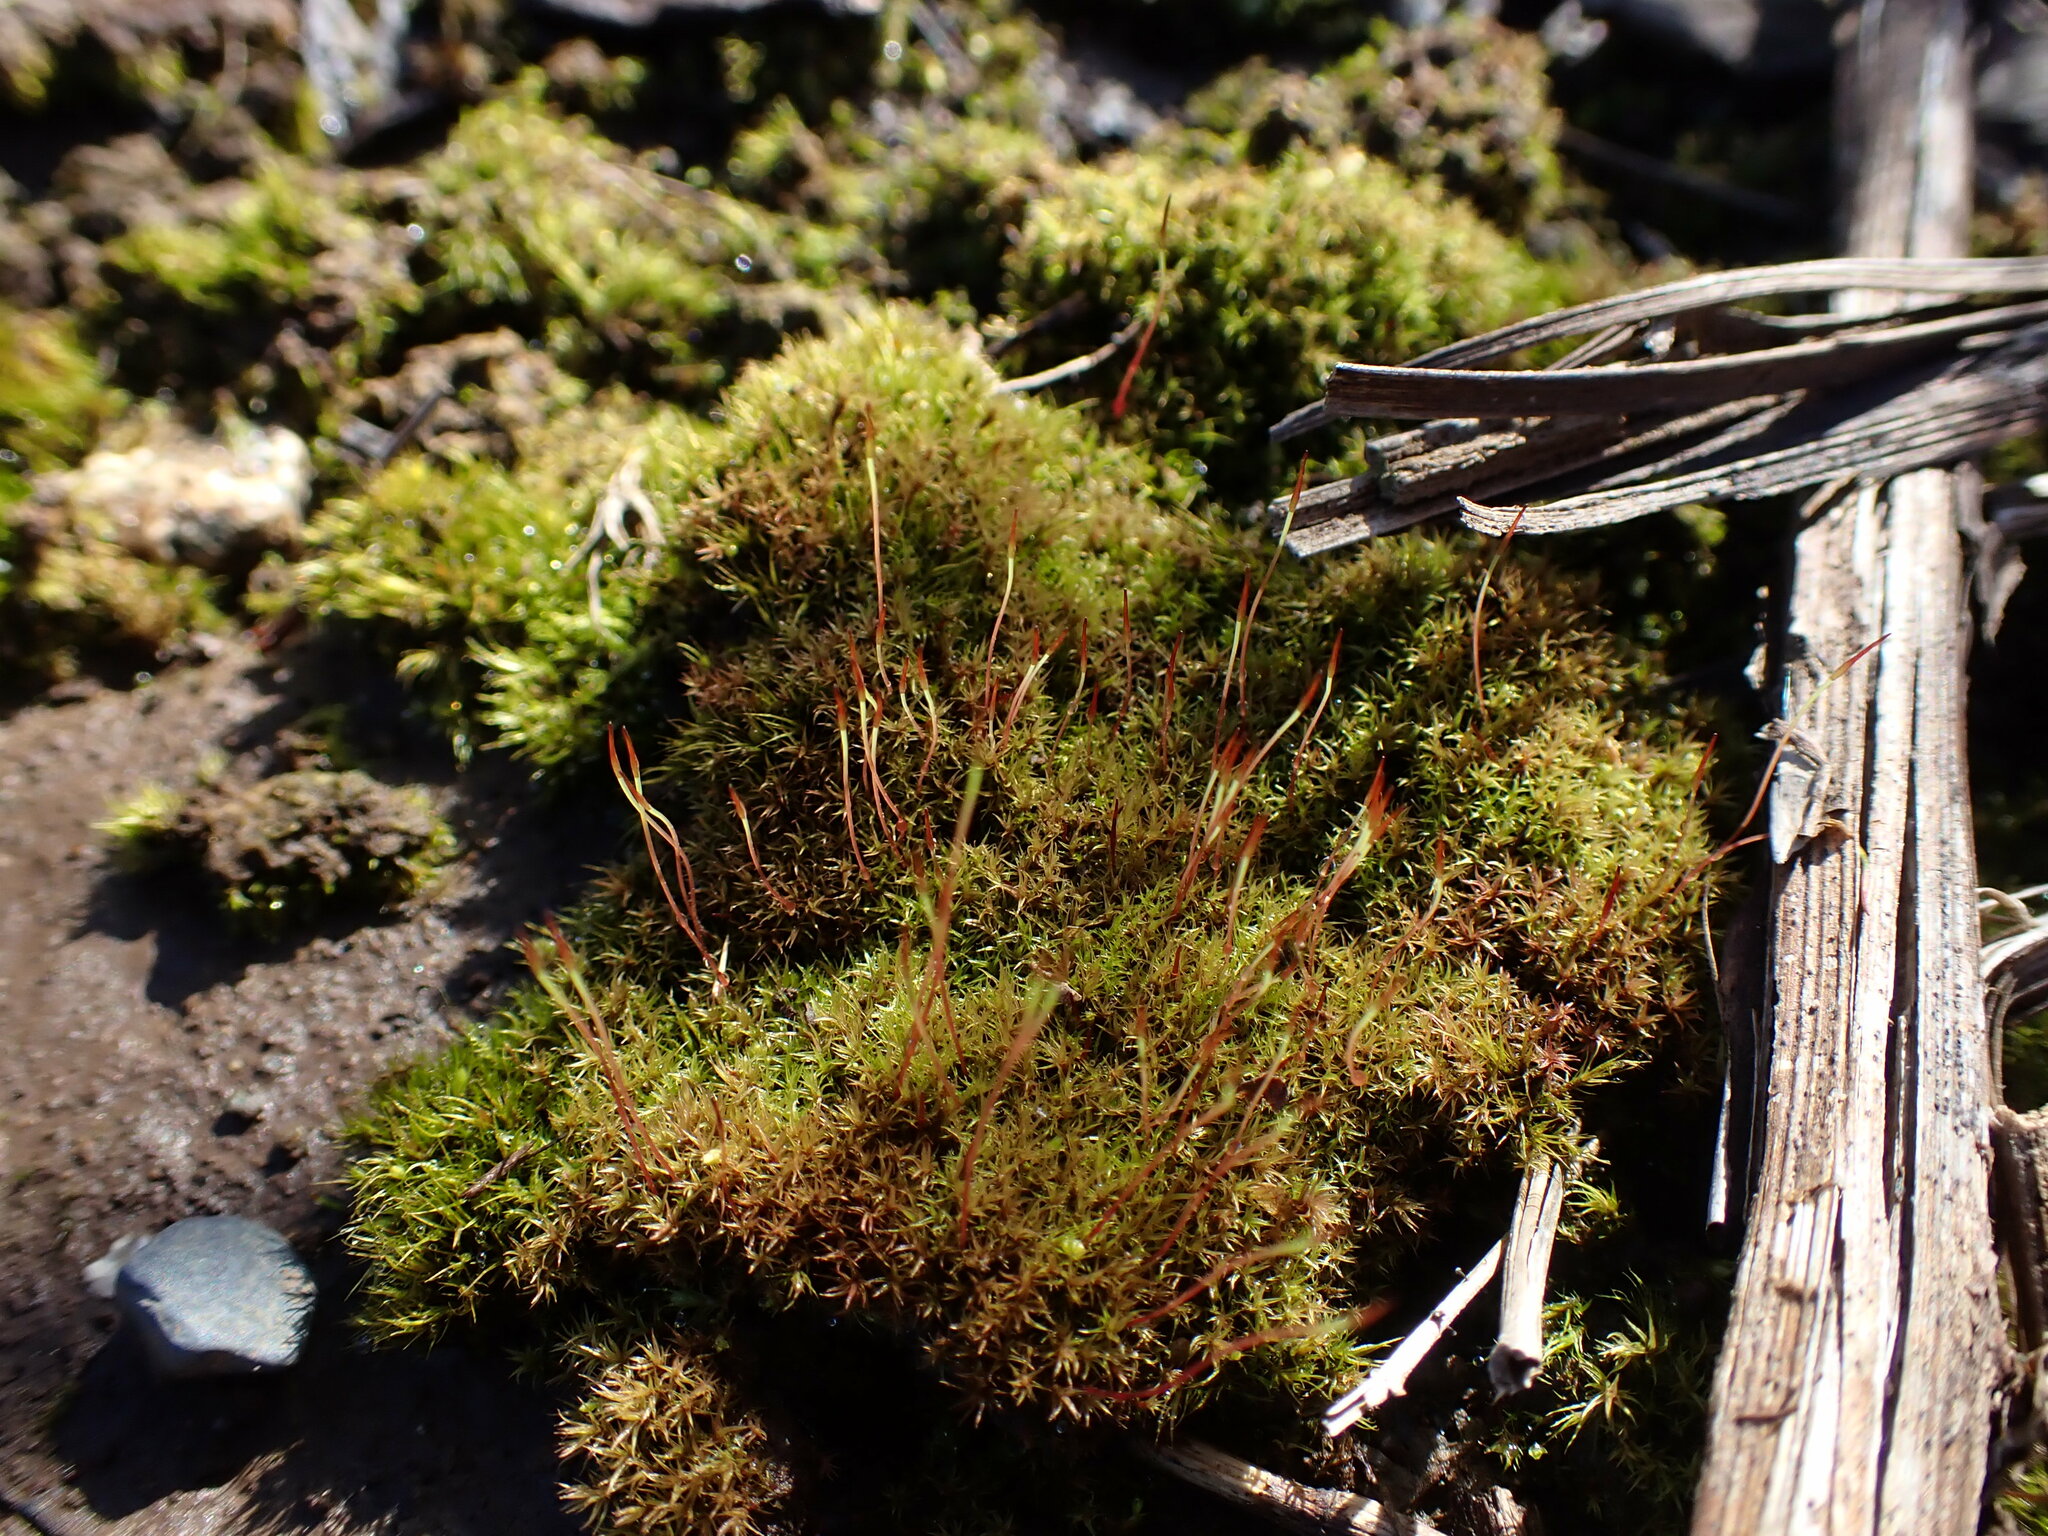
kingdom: Plantae
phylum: Bryophyta
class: Bryopsida
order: Dicranales
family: Ditrichaceae
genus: Ceratodon
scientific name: Ceratodon purpureus
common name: Redshank
